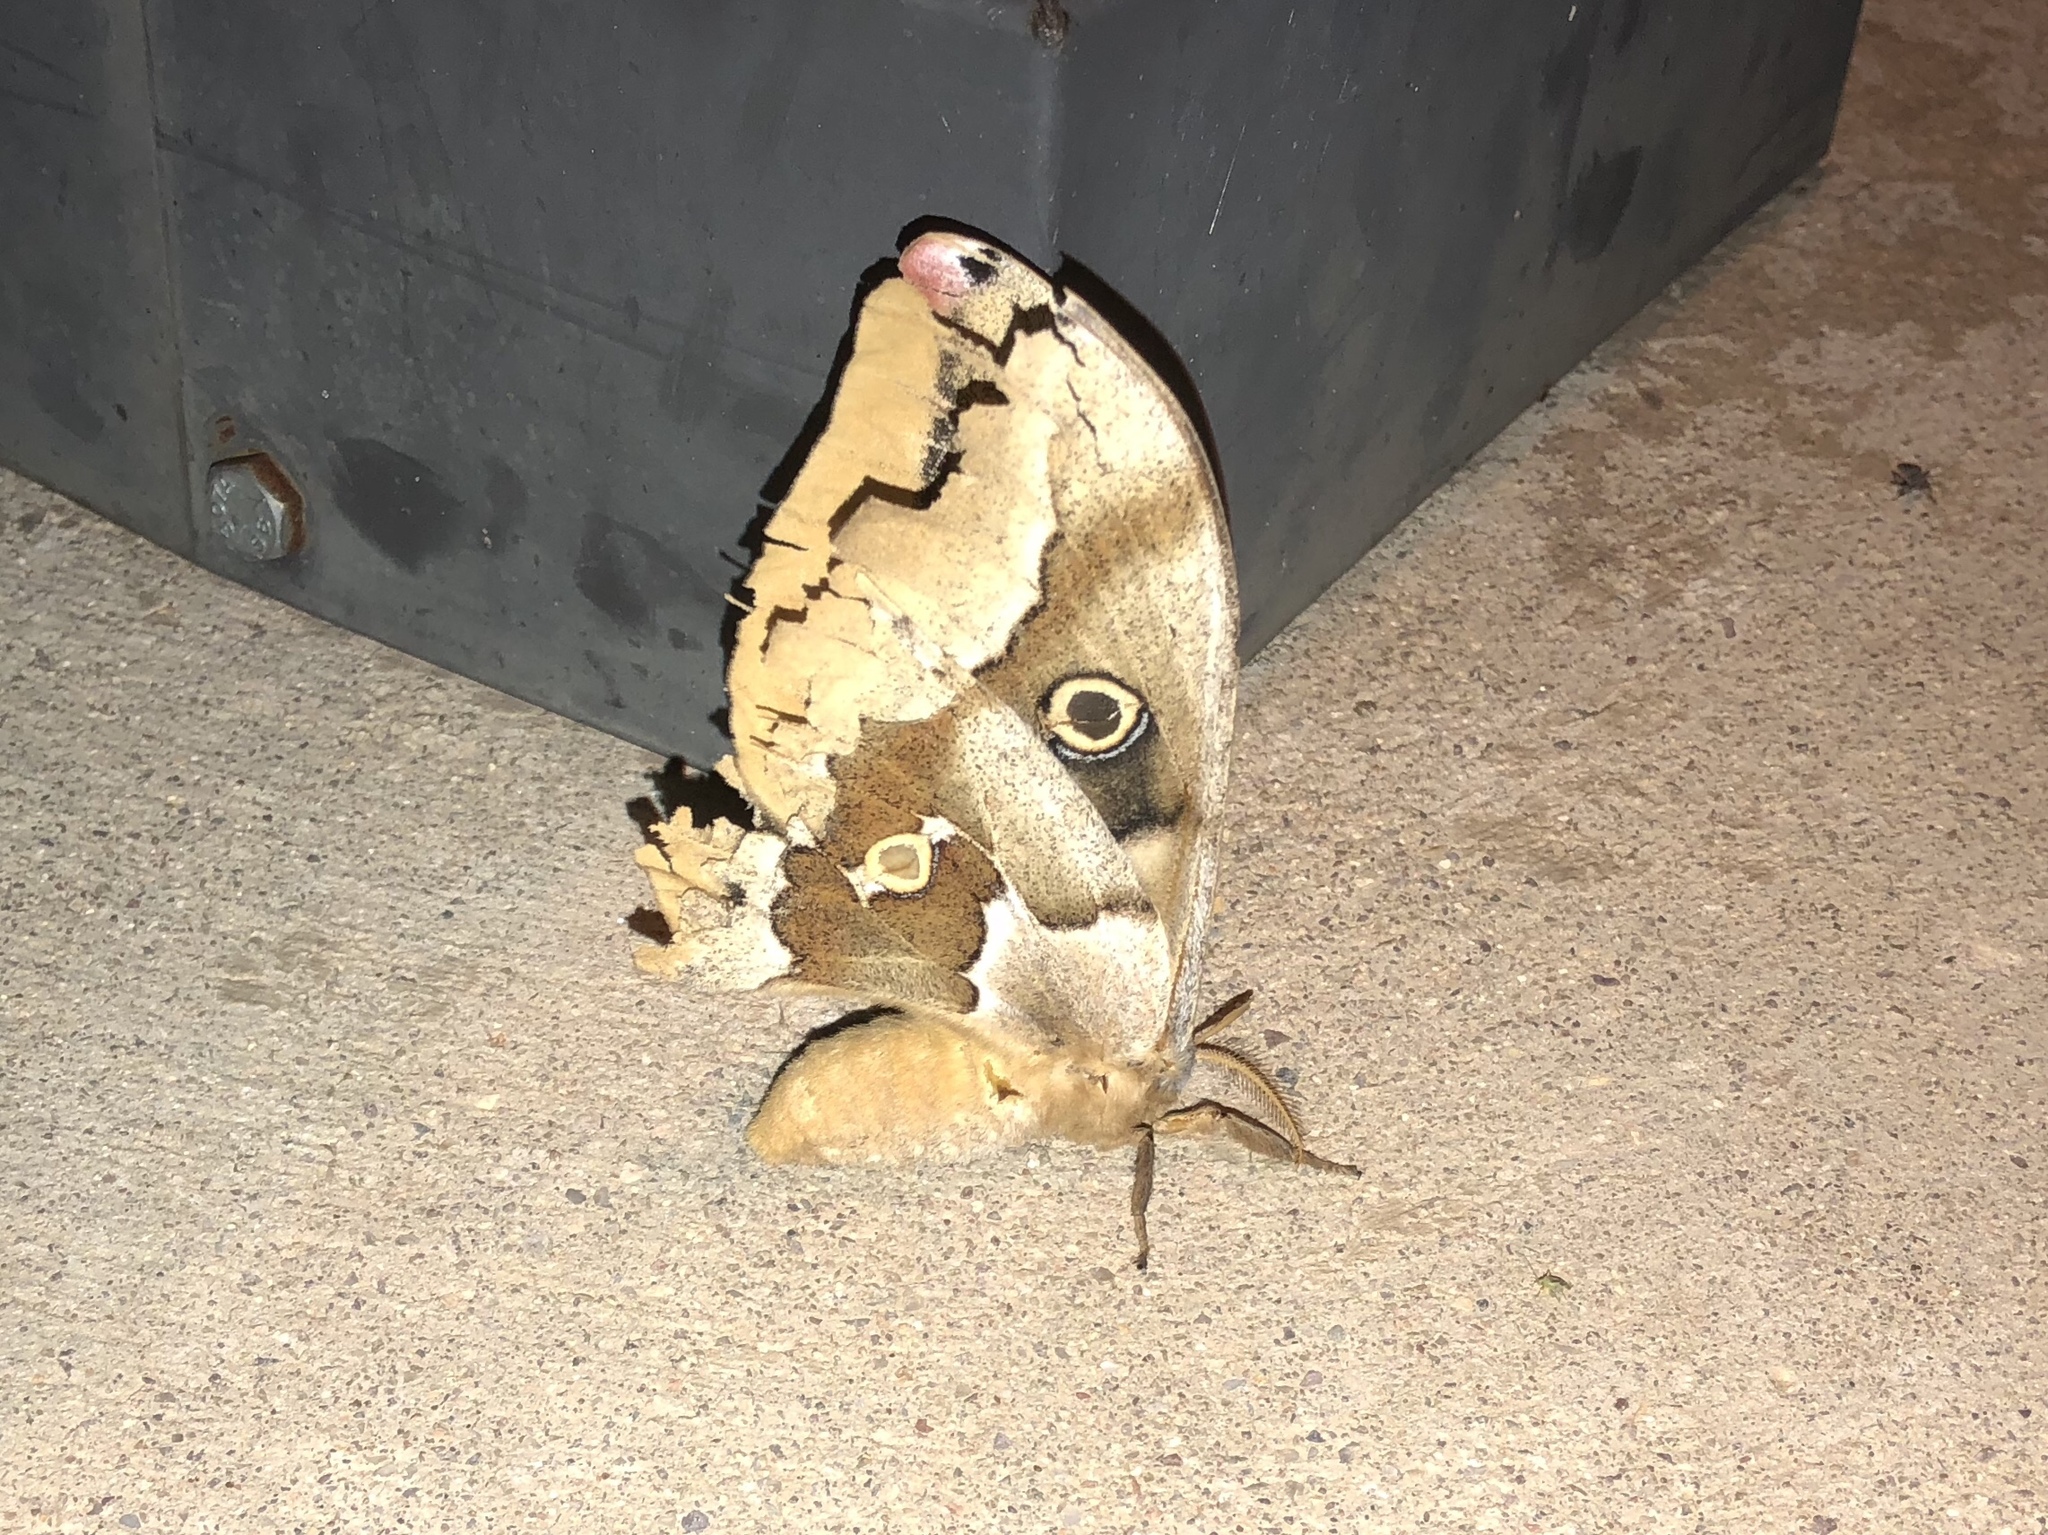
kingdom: Animalia
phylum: Arthropoda
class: Insecta
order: Lepidoptera
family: Saturniidae
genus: Antheraea
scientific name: Antheraea oculea
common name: Arizona polyphemus moth
